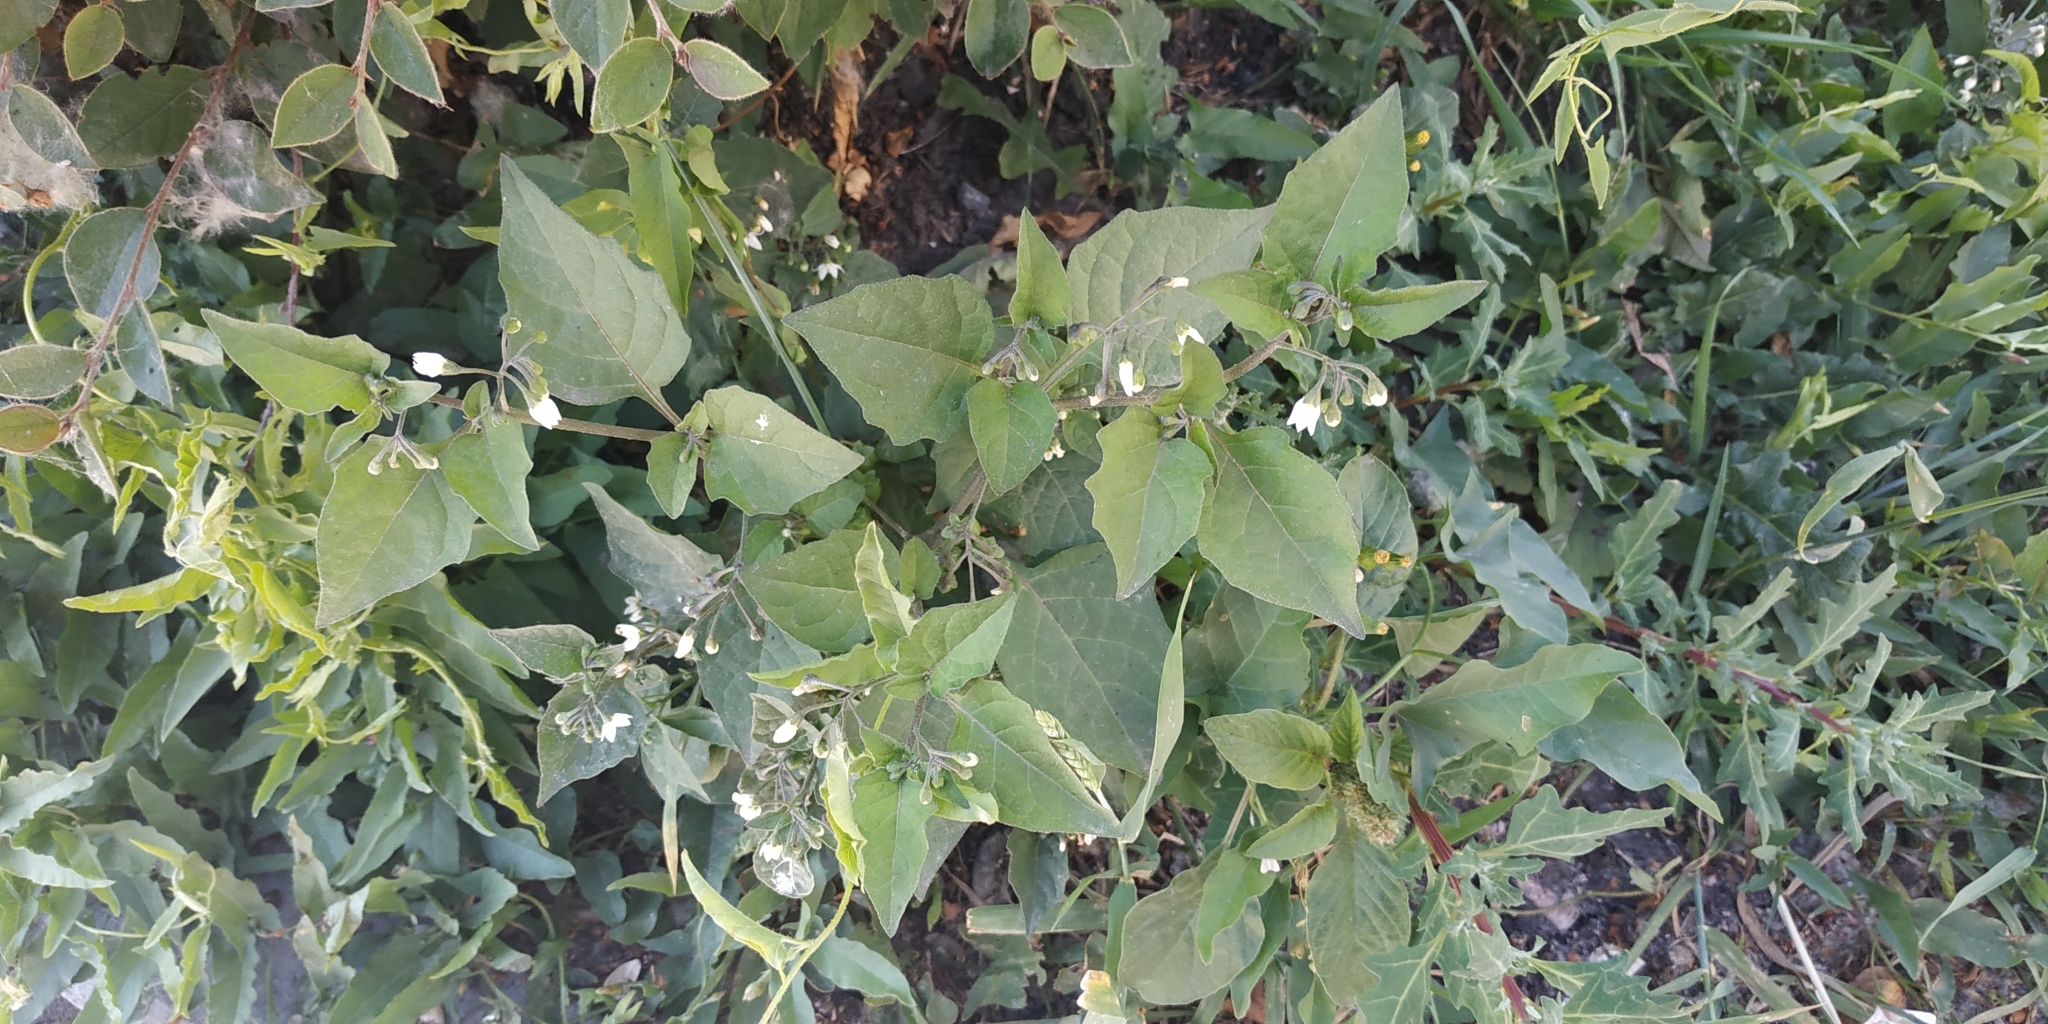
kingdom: Plantae
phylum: Tracheophyta
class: Magnoliopsida
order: Solanales
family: Solanaceae
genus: Solanum
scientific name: Solanum nigrum
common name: Black nightshade
